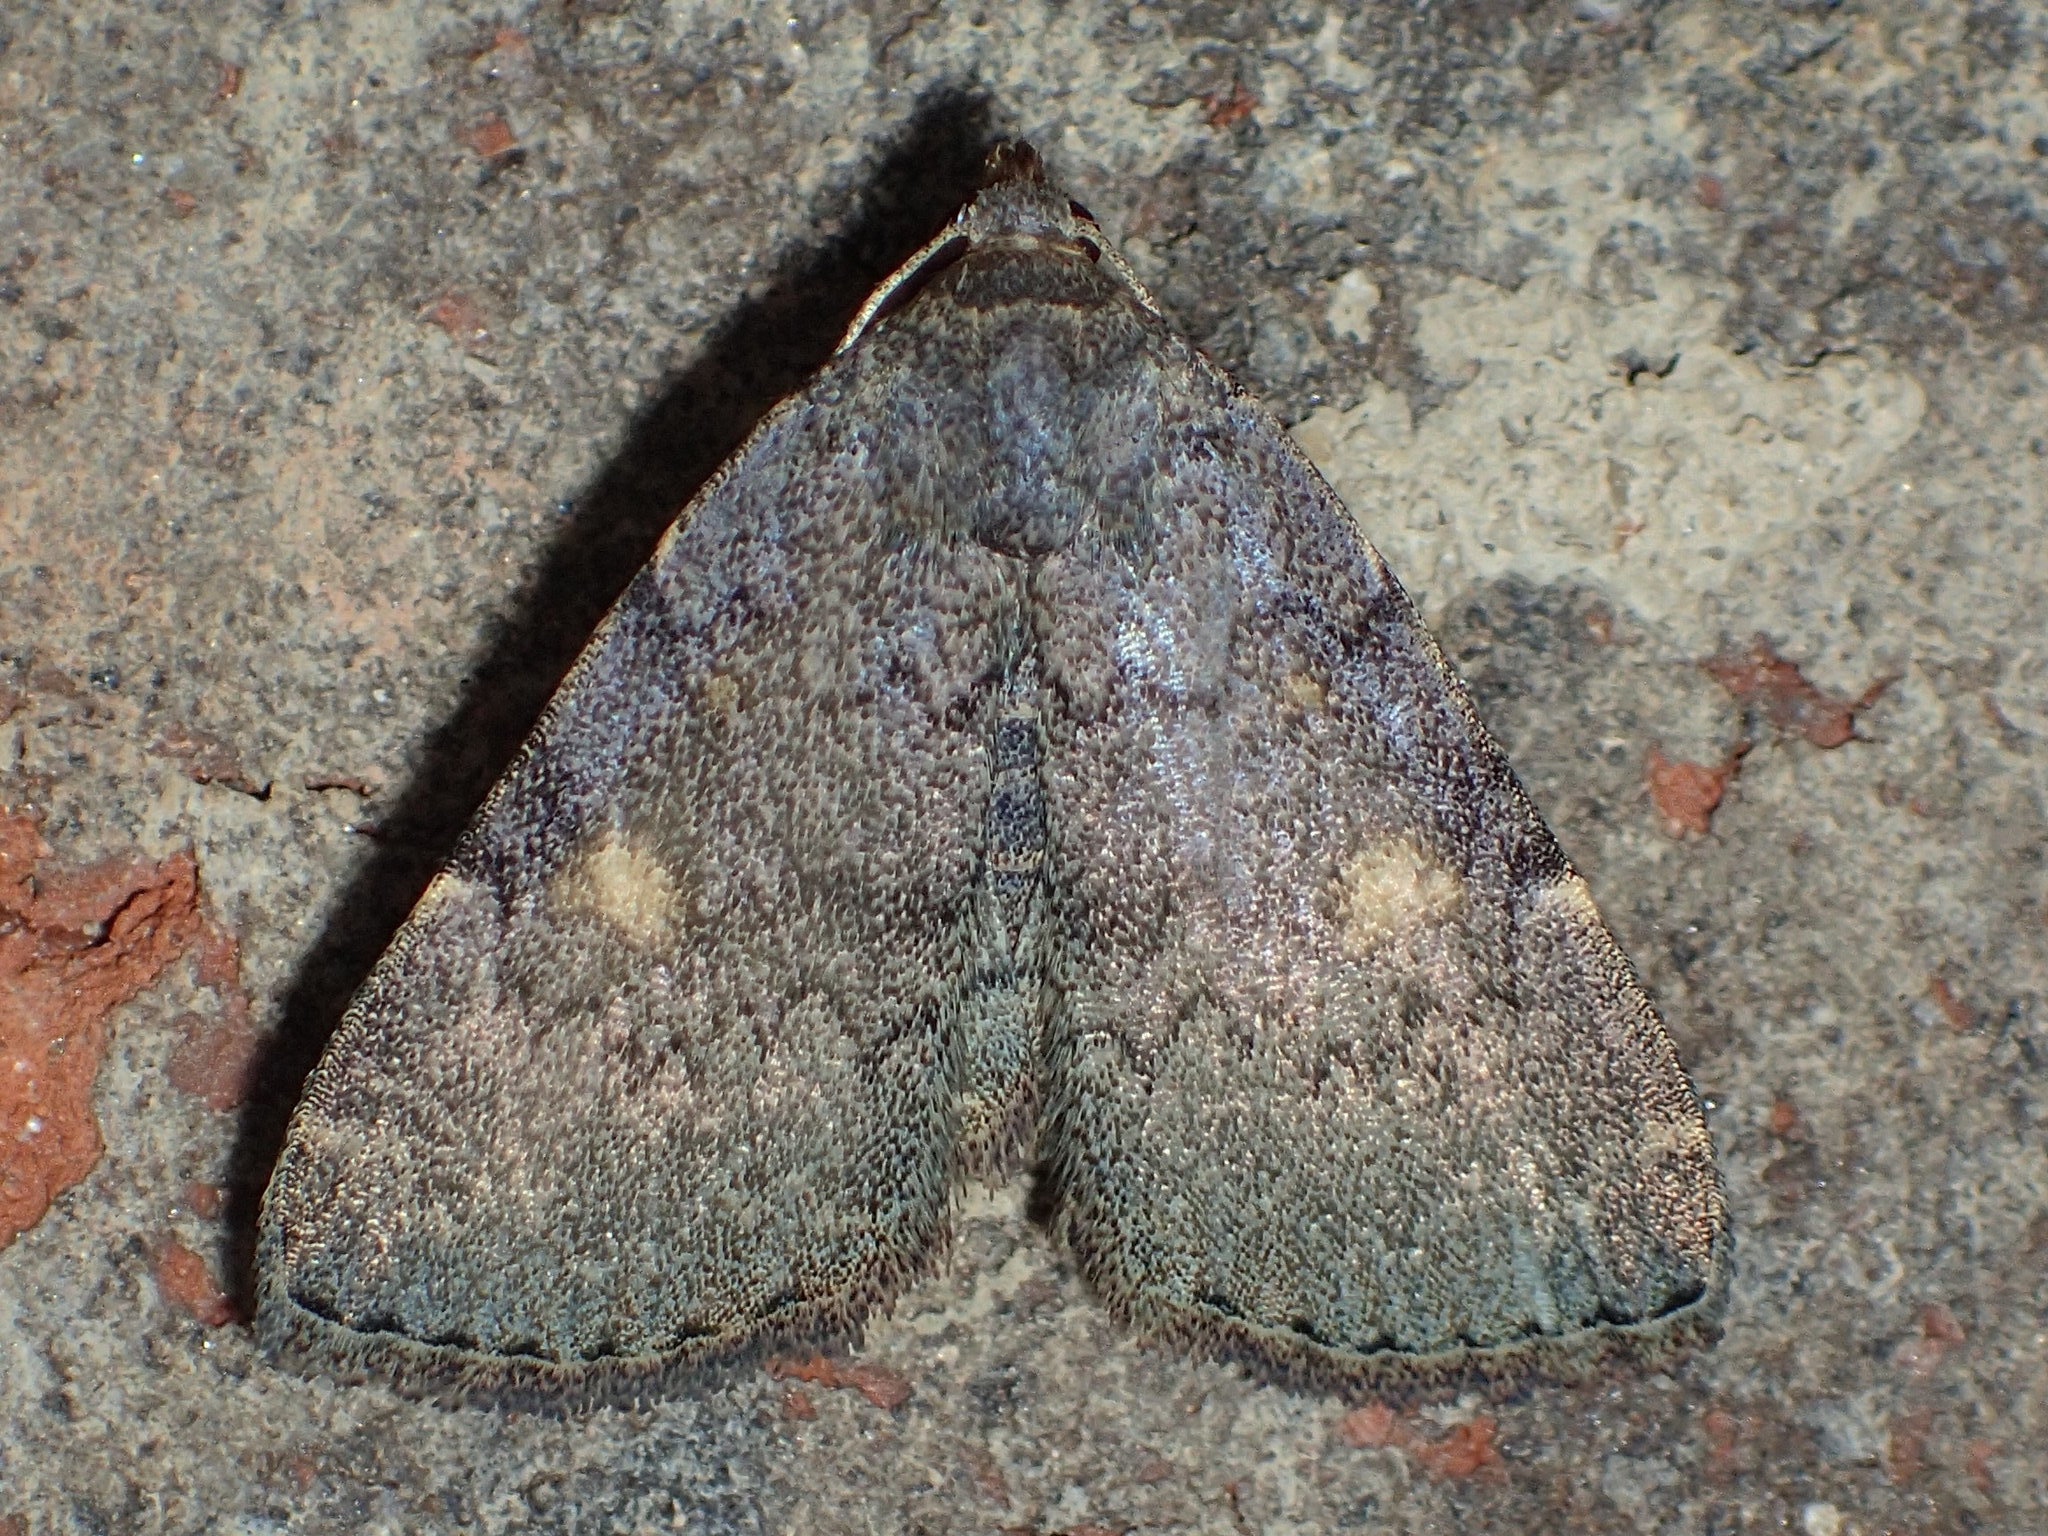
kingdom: Animalia
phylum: Arthropoda
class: Insecta
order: Lepidoptera
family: Erebidae
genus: Idia
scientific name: Idia aemula
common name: Common idia moth
